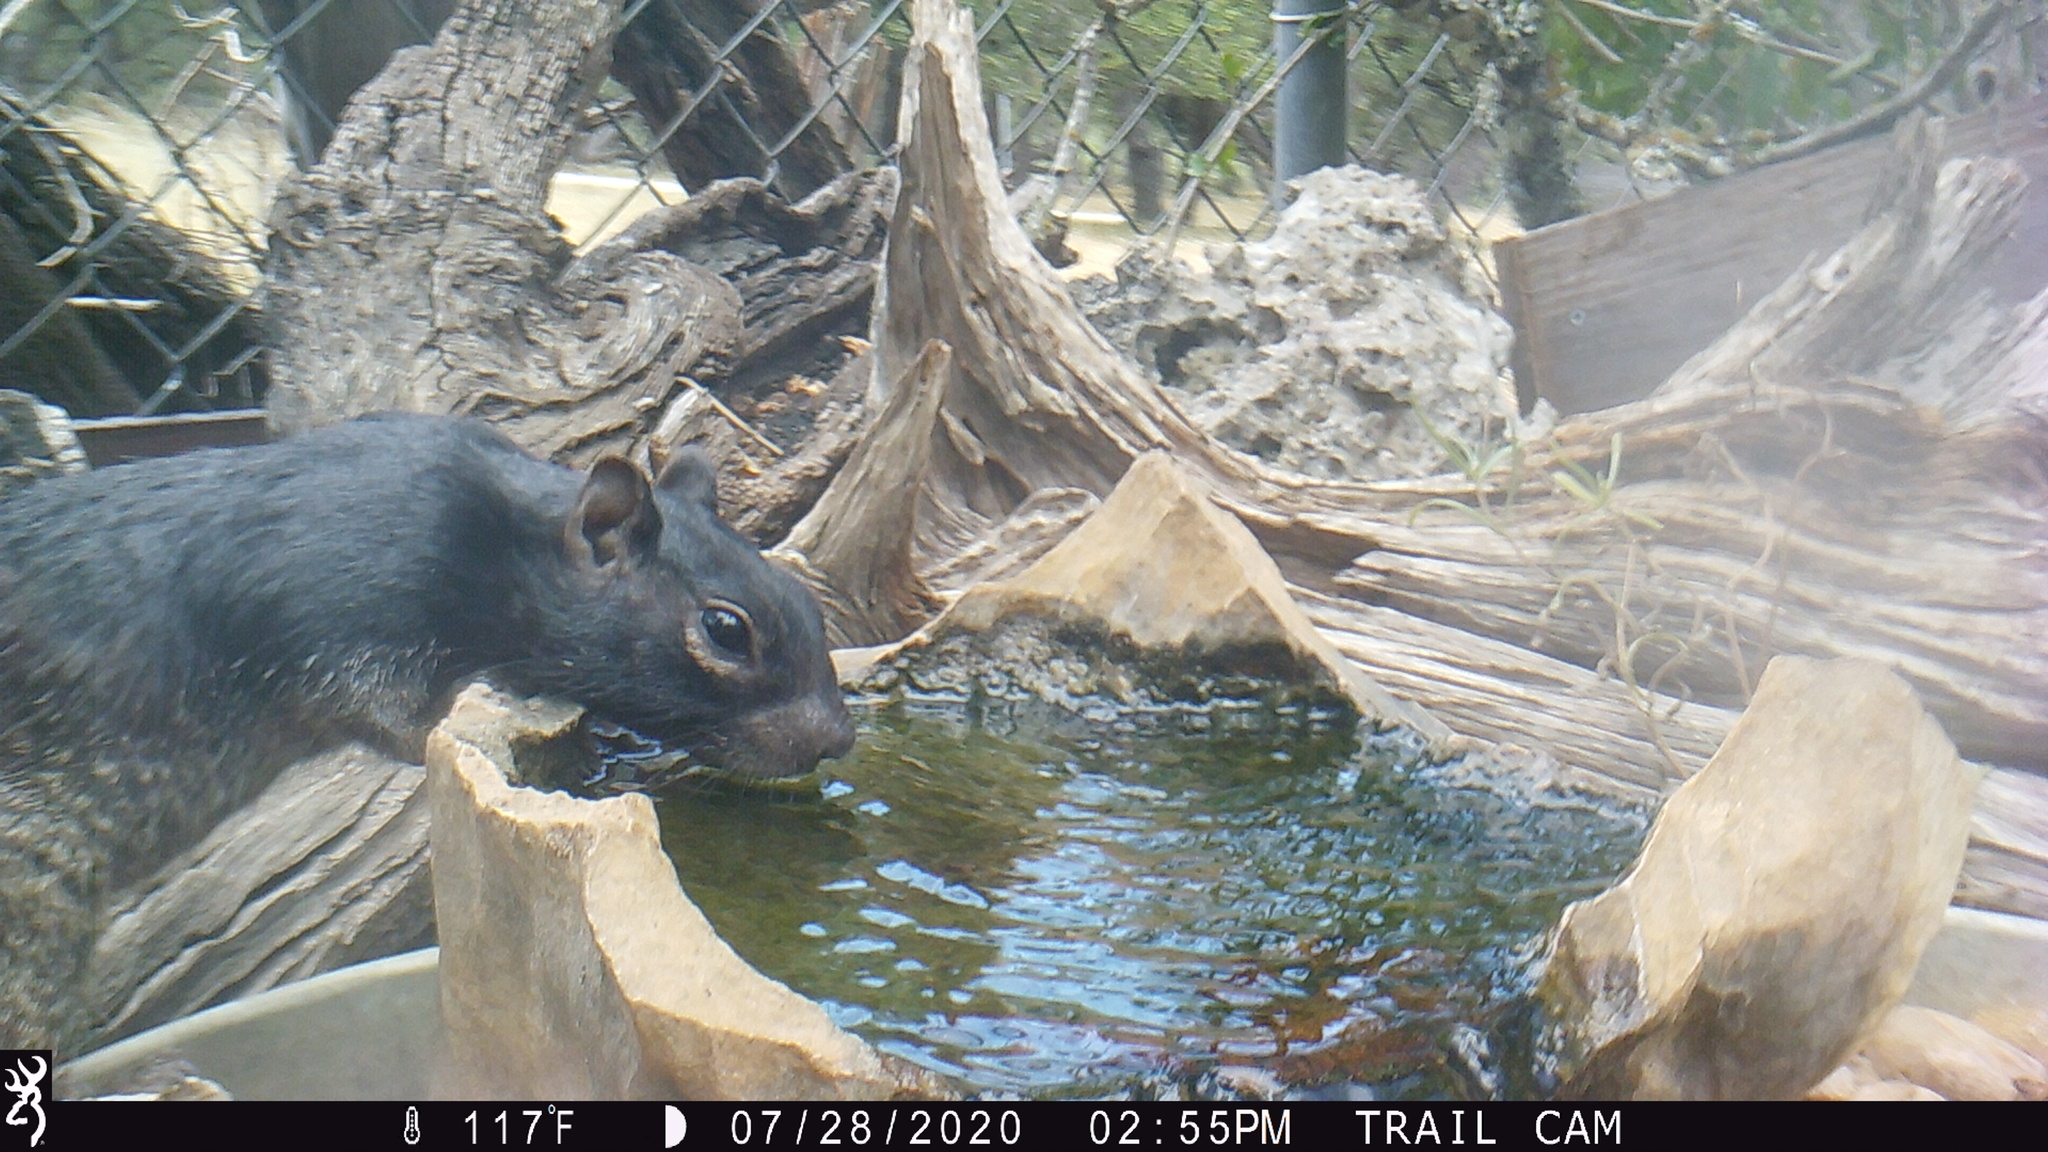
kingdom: Animalia
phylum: Chordata
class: Mammalia
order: Rodentia
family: Sciuridae
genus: Otospermophilus
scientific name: Otospermophilus variegatus
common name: Rock squirrel
